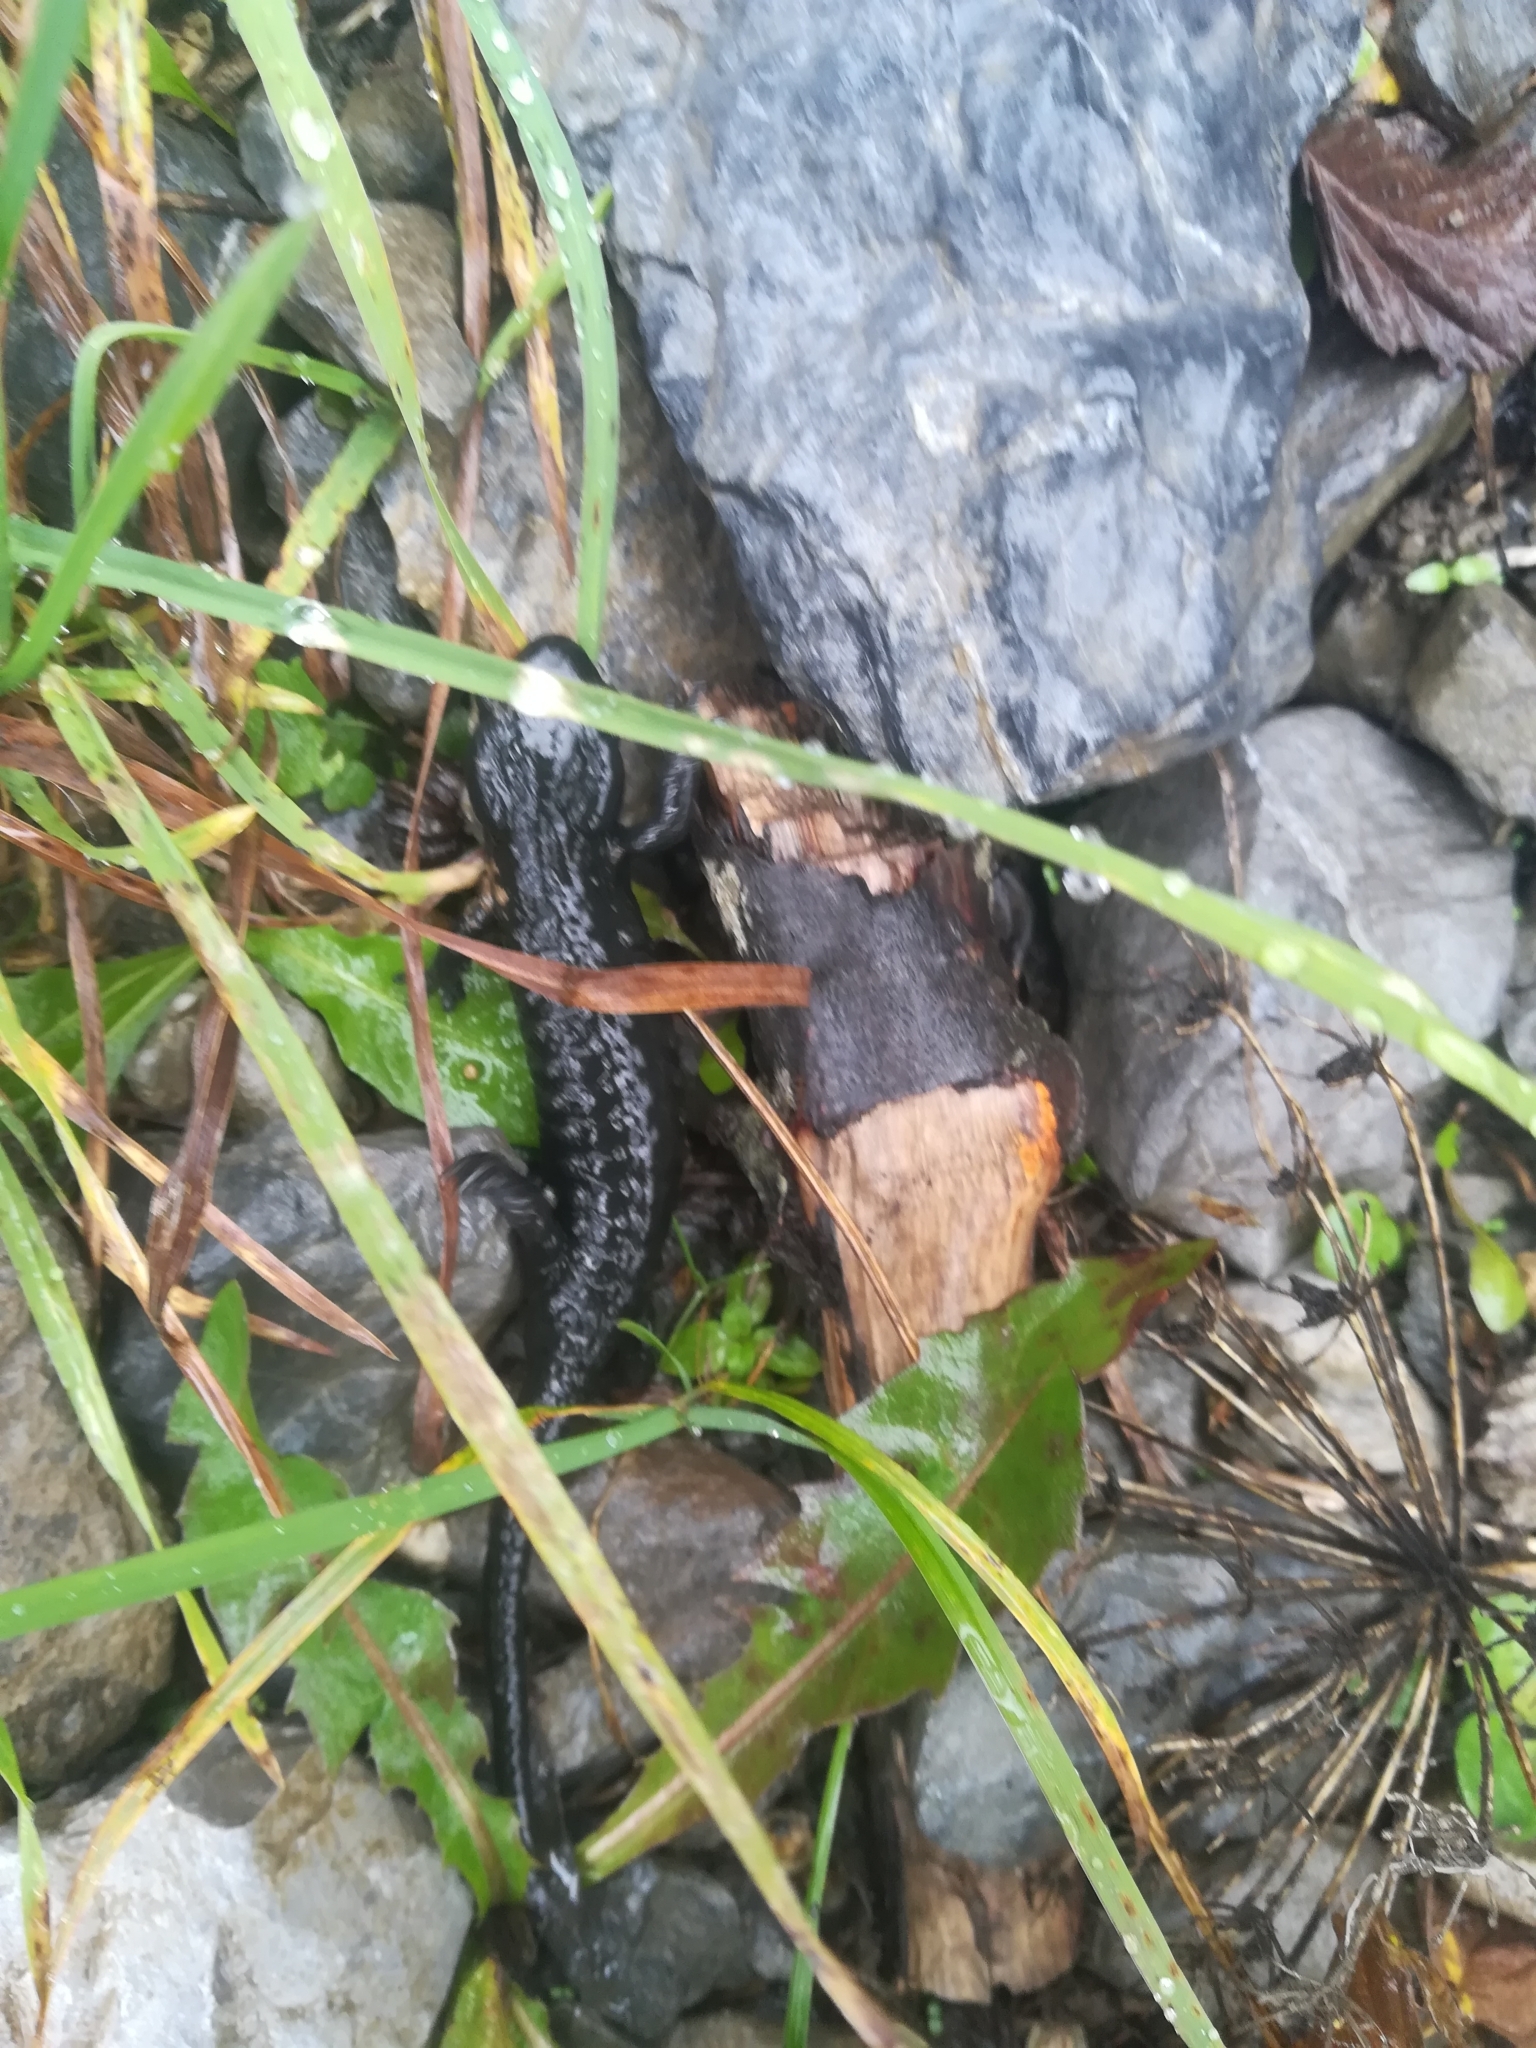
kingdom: Animalia
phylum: Chordata
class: Amphibia
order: Caudata
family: Salamandridae
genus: Salamandra
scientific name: Salamandra atra
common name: Alpine salamander
